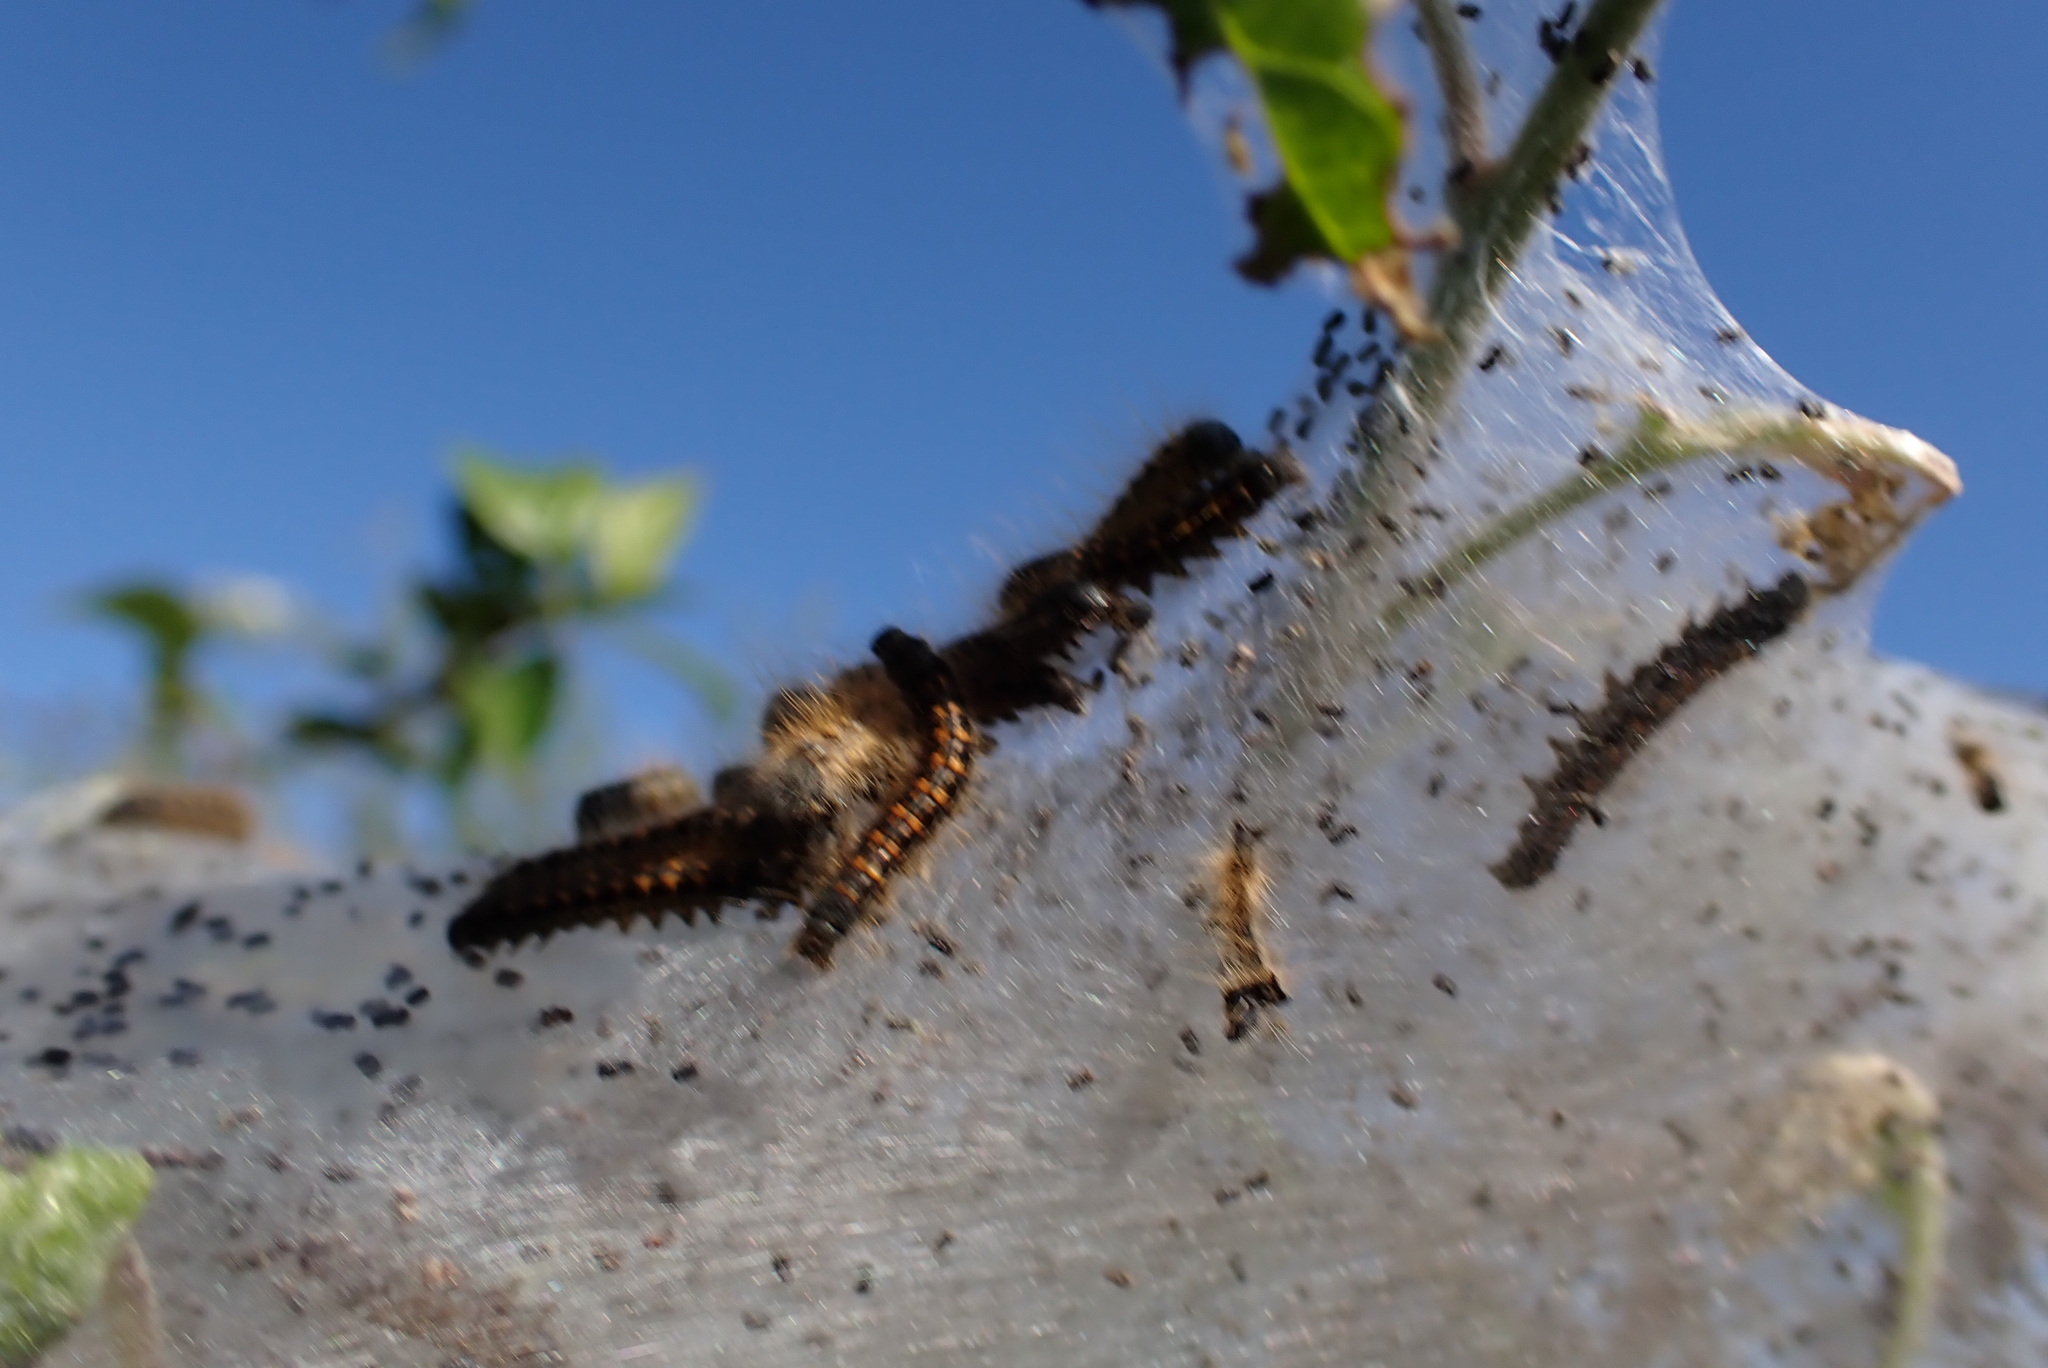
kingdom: Animalia
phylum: Arthropoda
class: Insecta
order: Lepidoptera
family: Lasiocampidae
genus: Malacosoma
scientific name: Malacosoma californica
